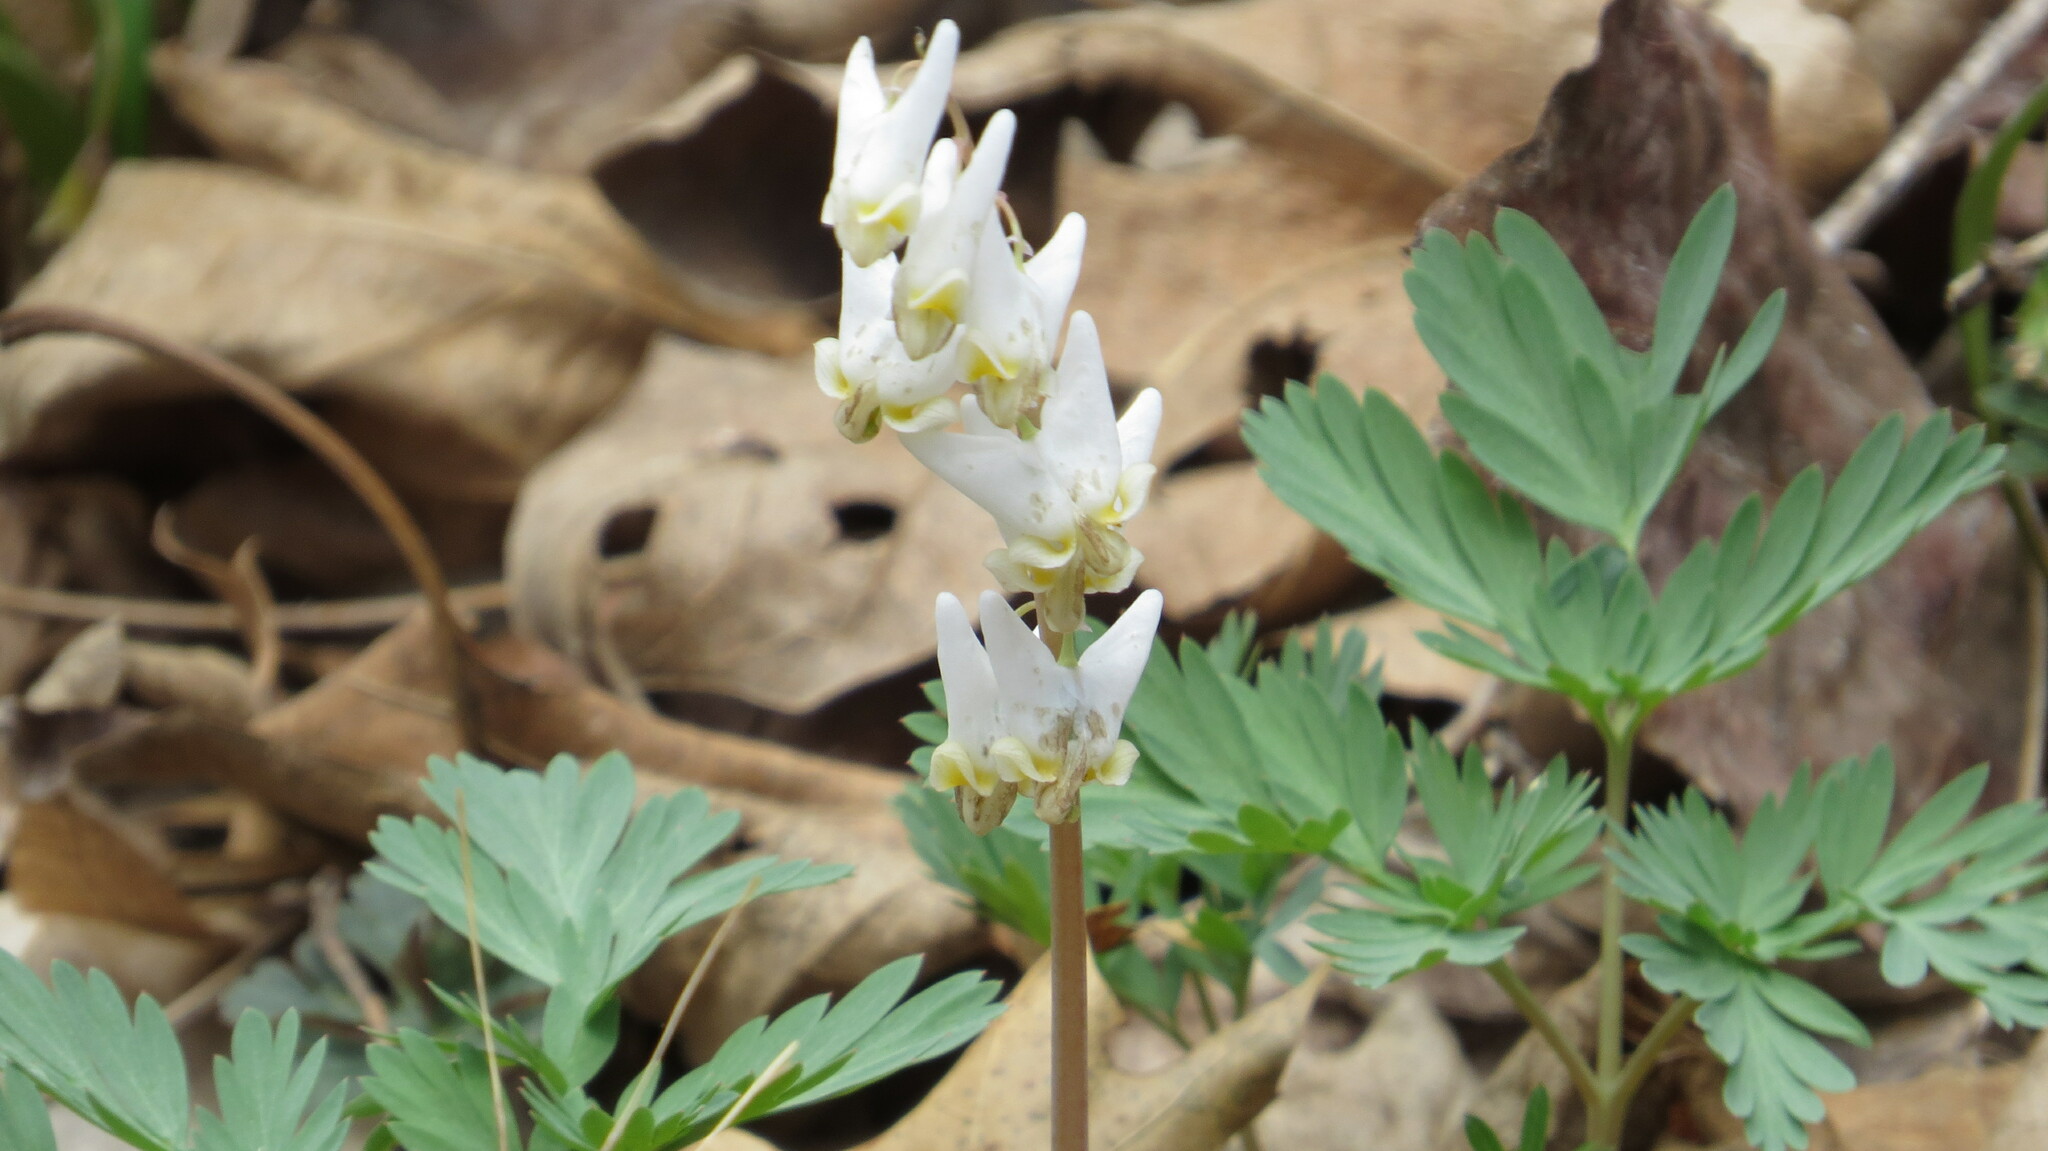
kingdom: Plantae
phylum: Tracheophyta
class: Magnoliopsida
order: Ranunculales
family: Papaveraceae
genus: Dicentra
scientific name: Dicentra cucullaria
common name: Dutchman's breeches
